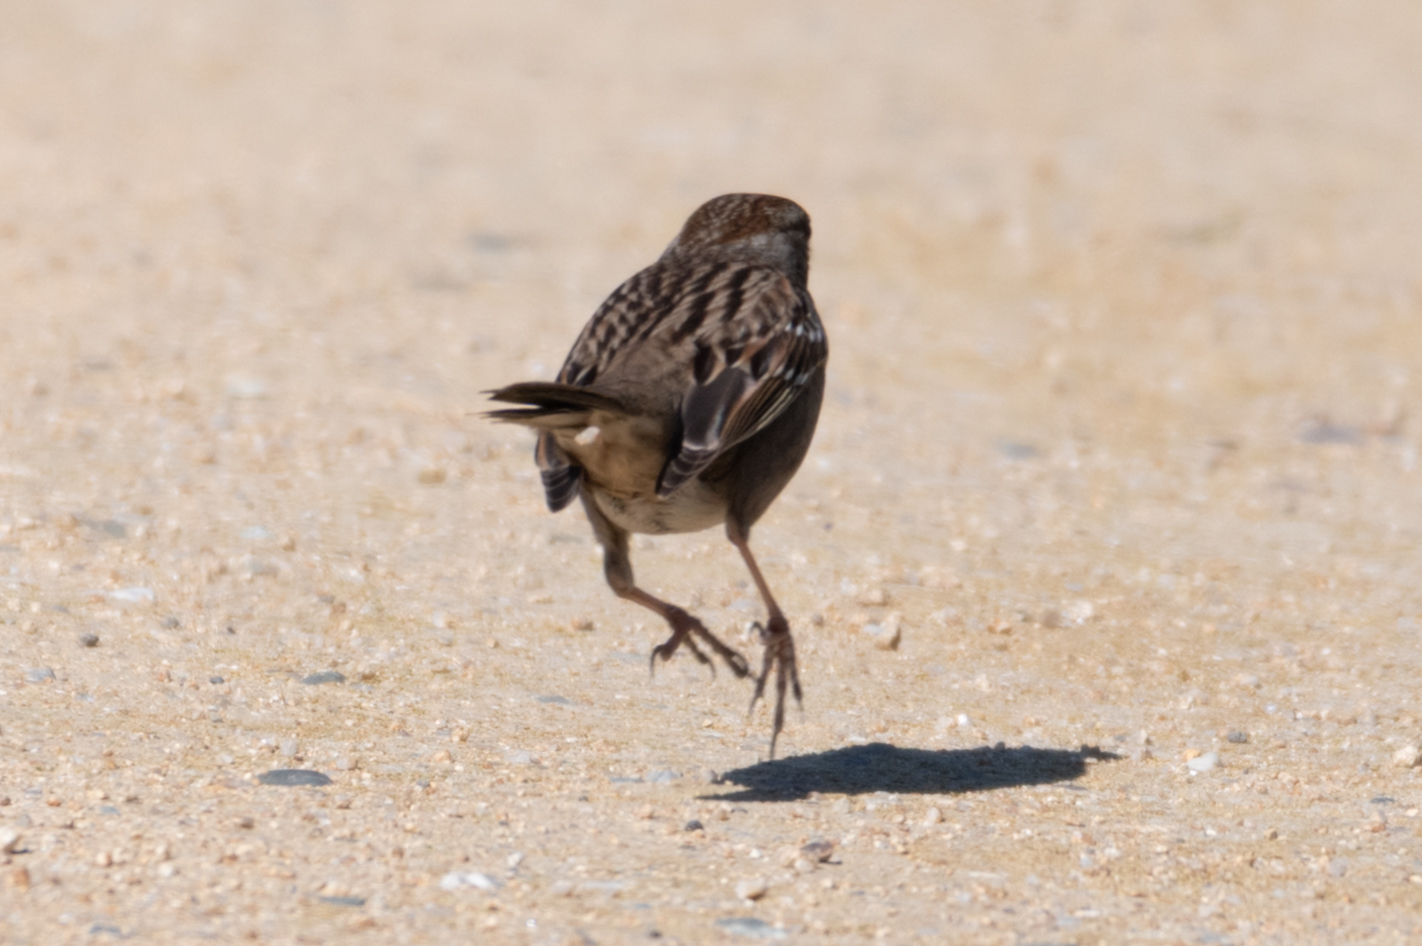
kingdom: Animalia
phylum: Chordata
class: Aves
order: Passeriformes
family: Passerellidae
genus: Zonotrichia
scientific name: Zonotrichia
